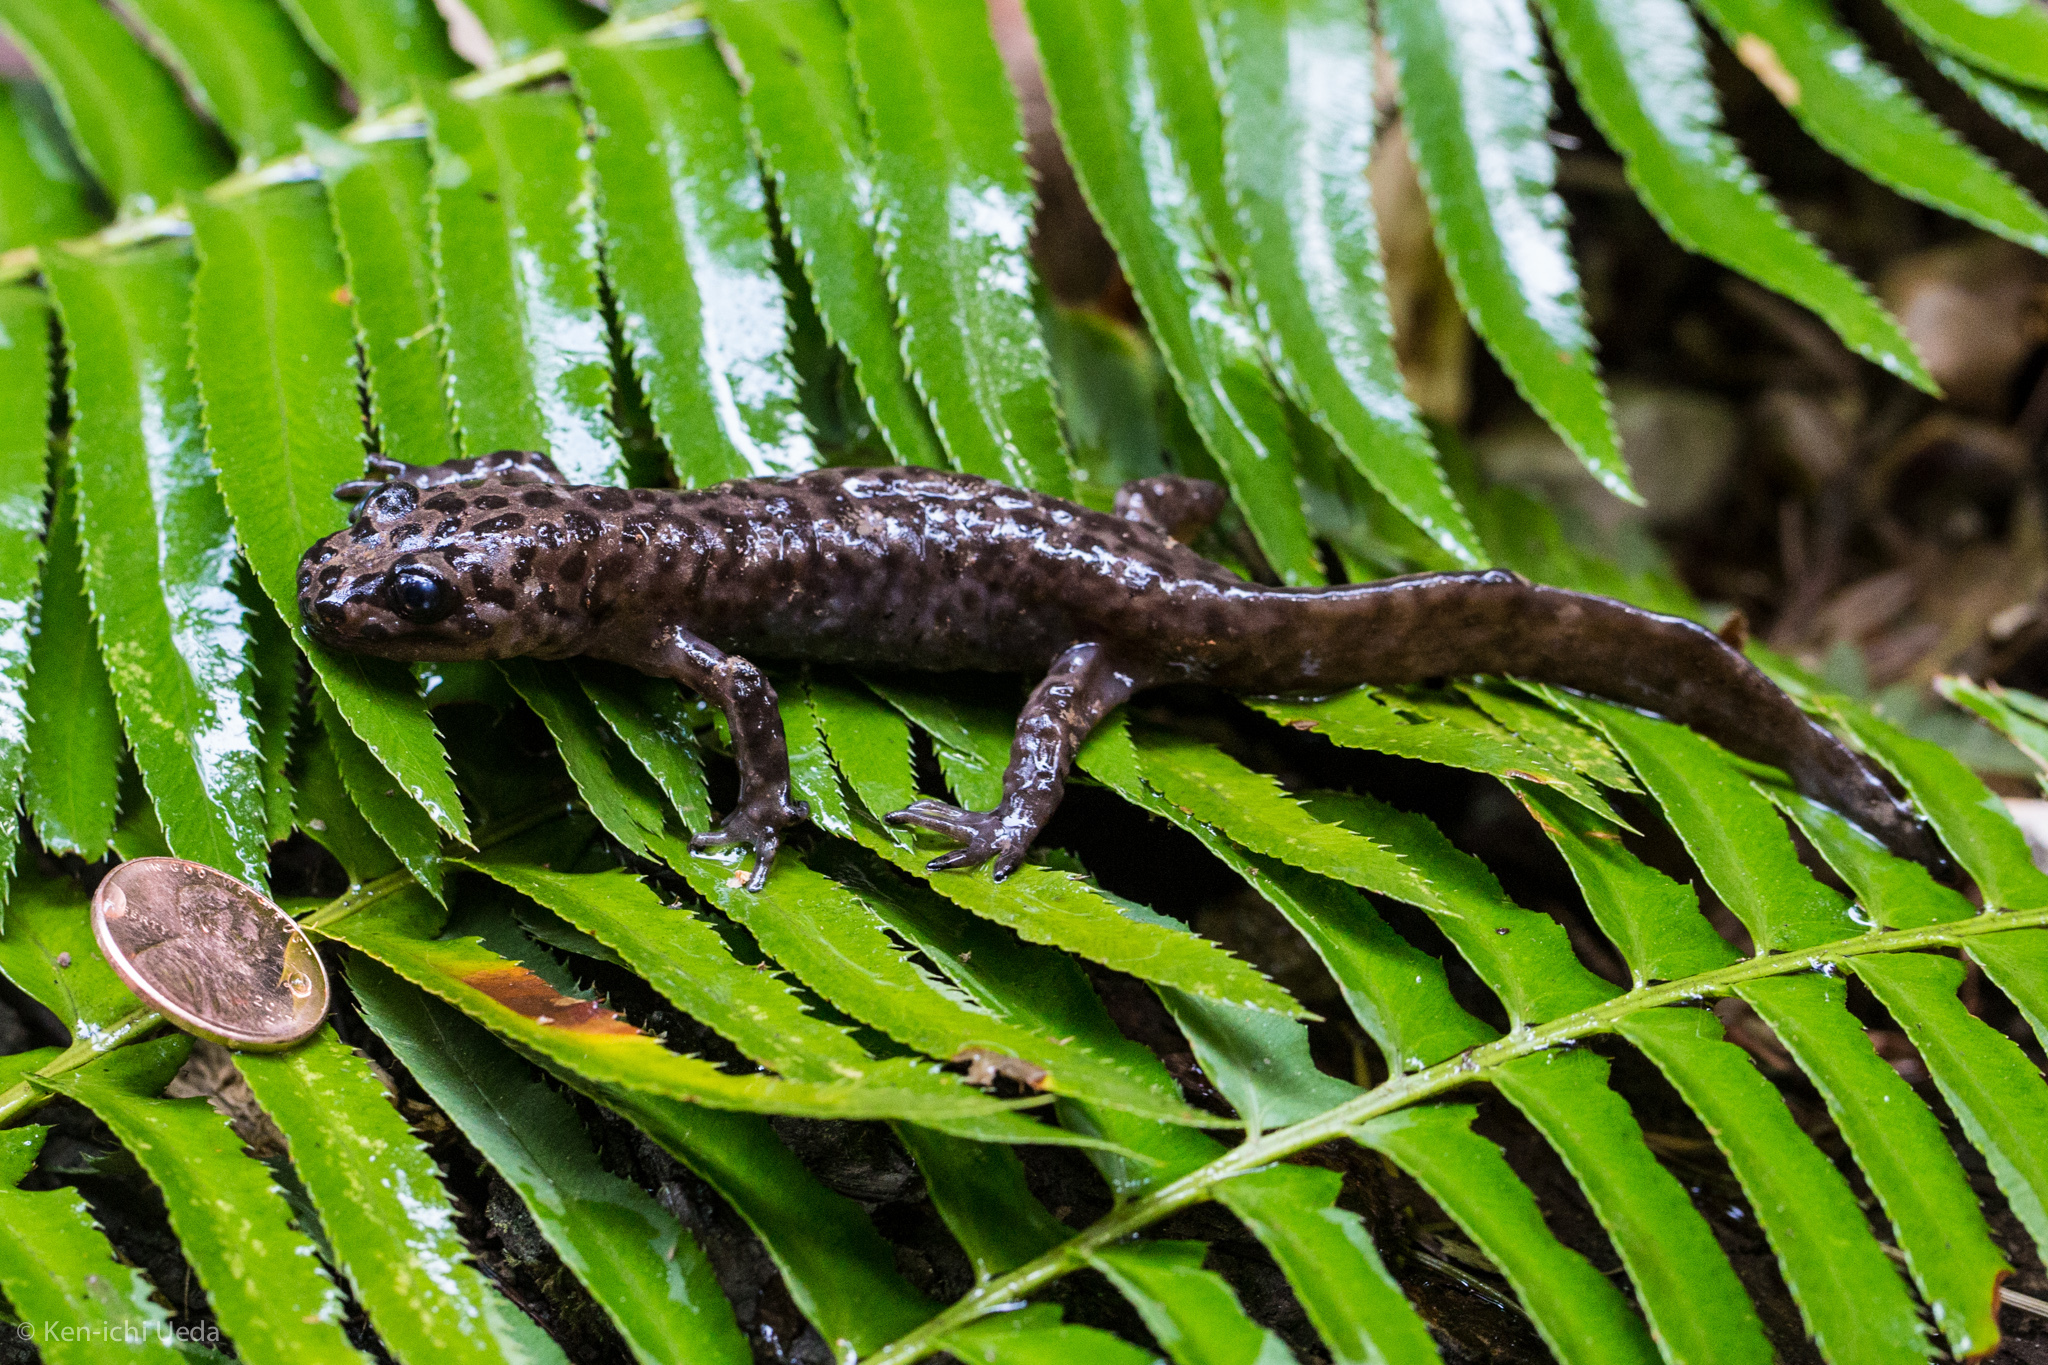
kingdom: Animalia
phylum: Chordata
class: Amphibia
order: Caudata
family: Ambystomatidae
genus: Dicamptodon
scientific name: Dicamptodon ensatus
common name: California giant salamander
